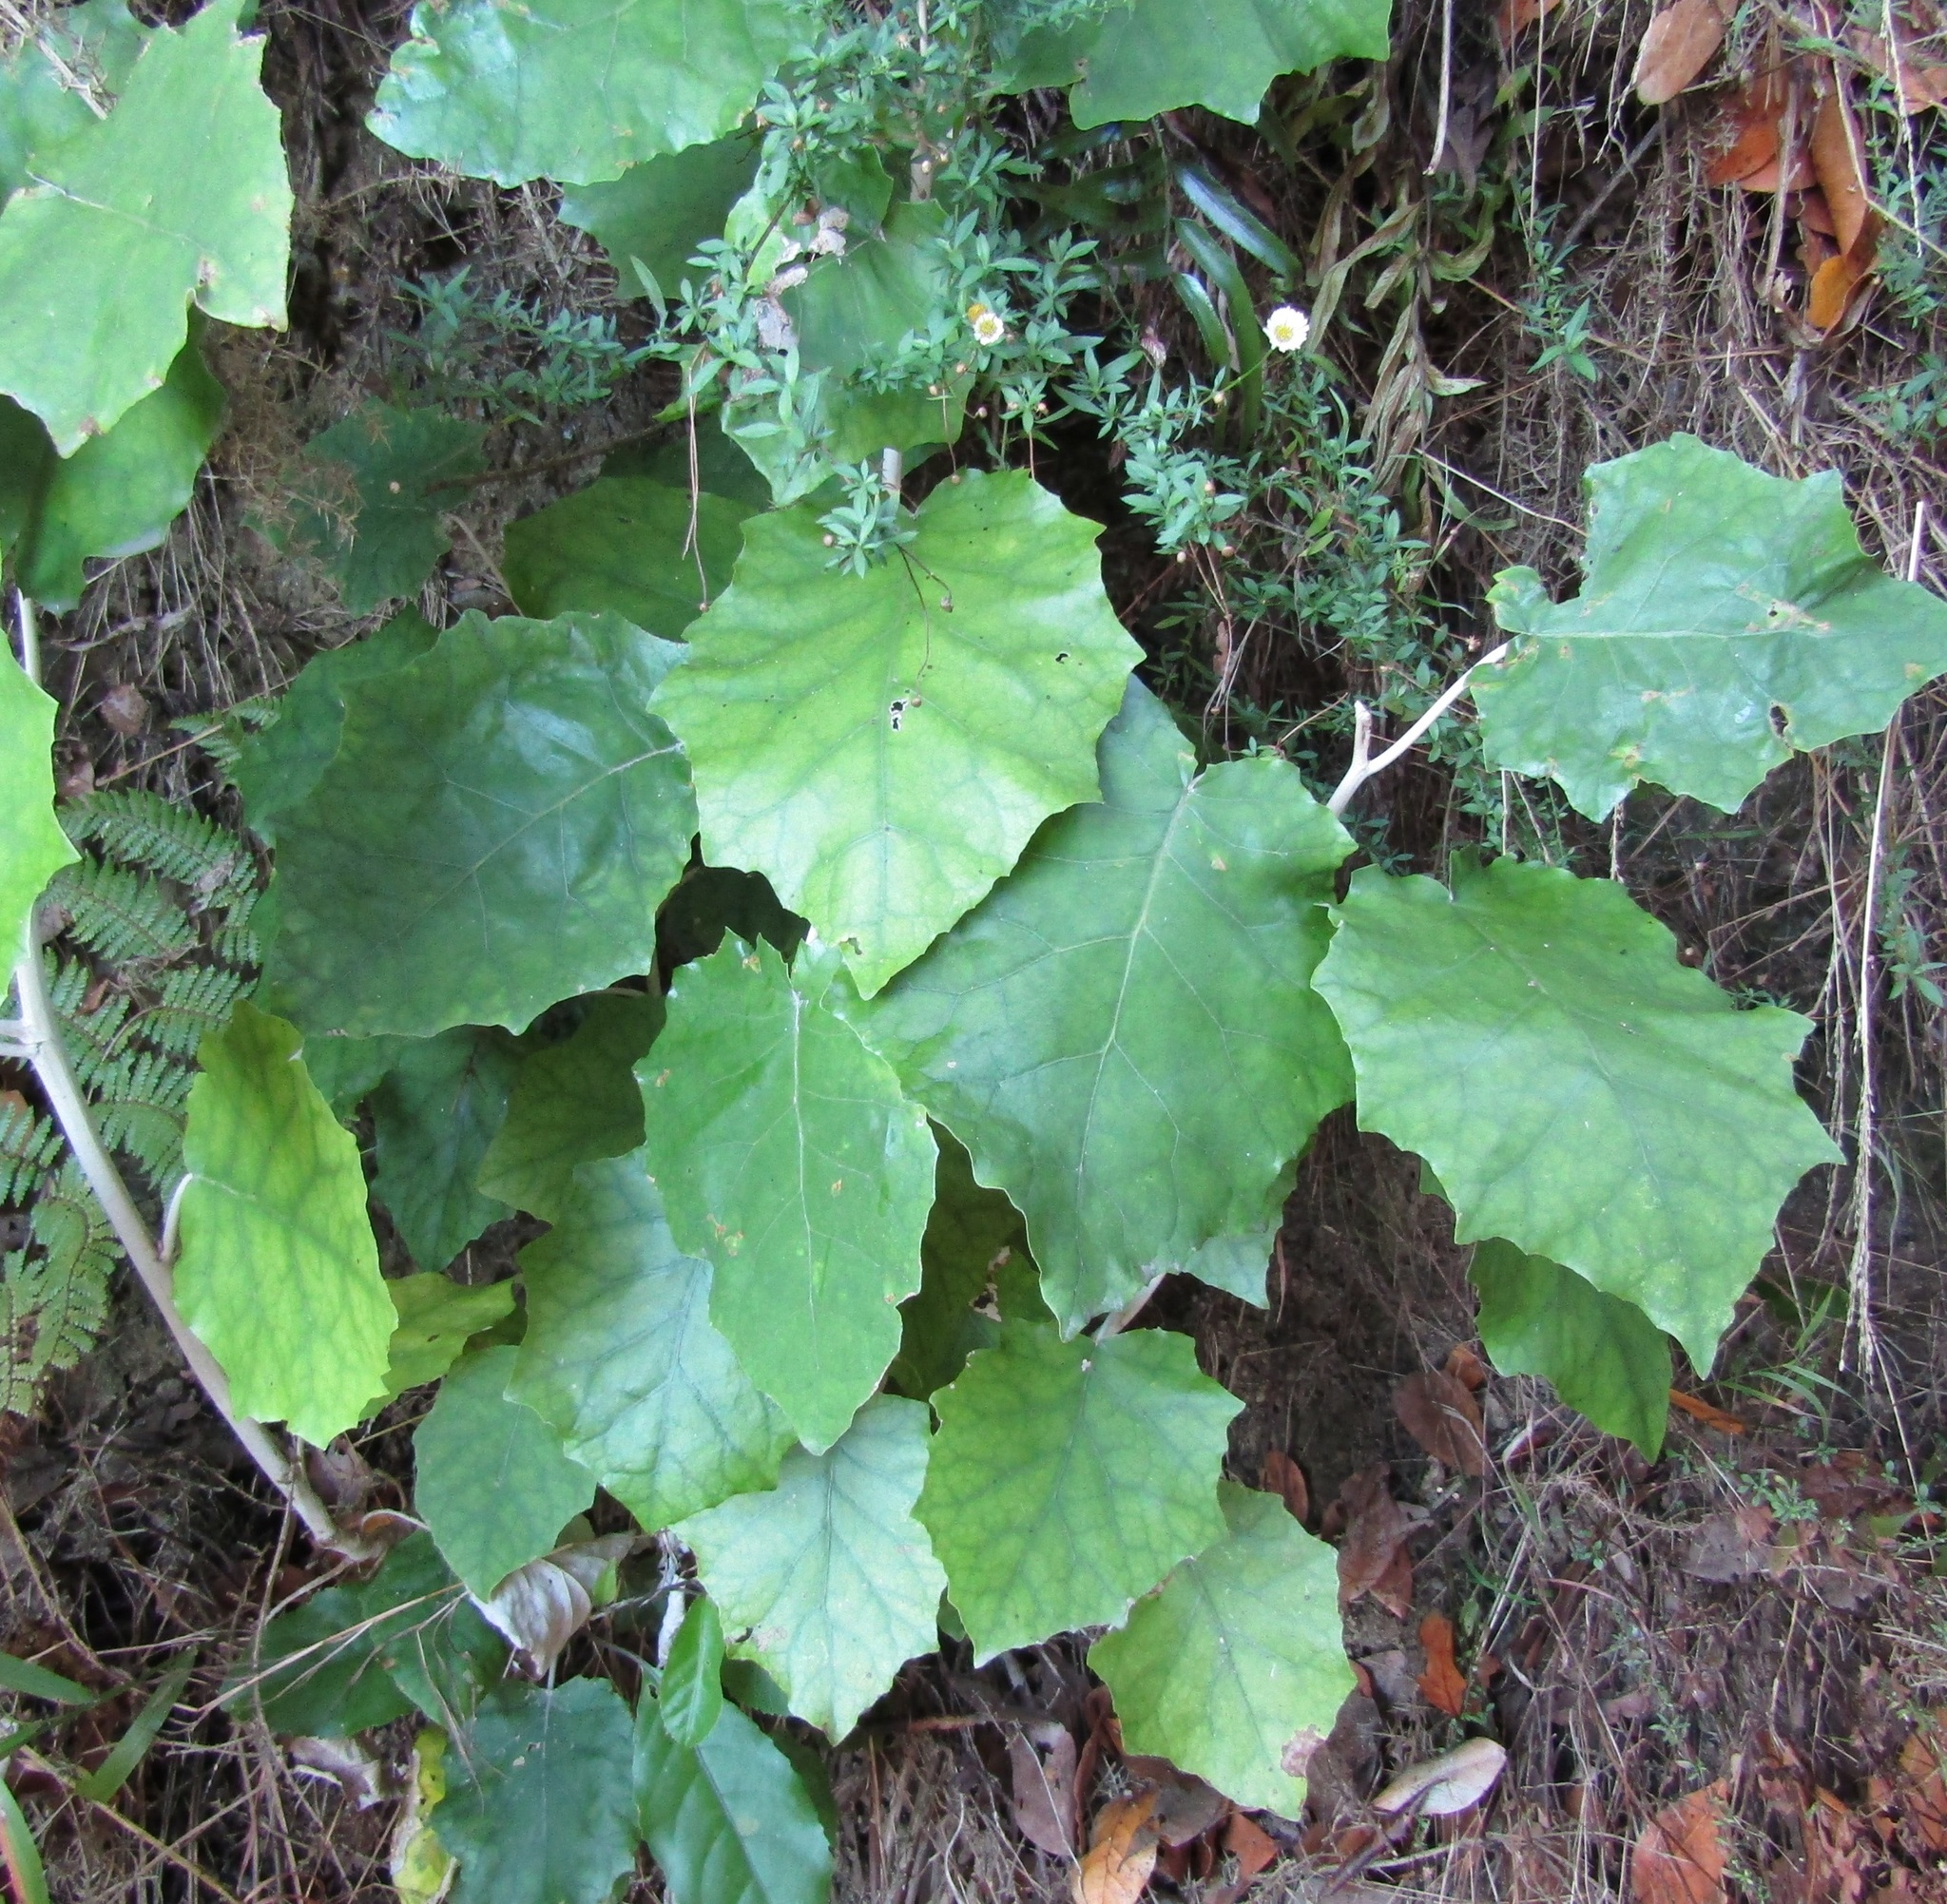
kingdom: Plantae
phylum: Tracheophyta
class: Magnoliopsida
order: Asterales
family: Asteraceae
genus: Brachyglottis
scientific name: Brachyglottis repanda
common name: Hedge ragwort
